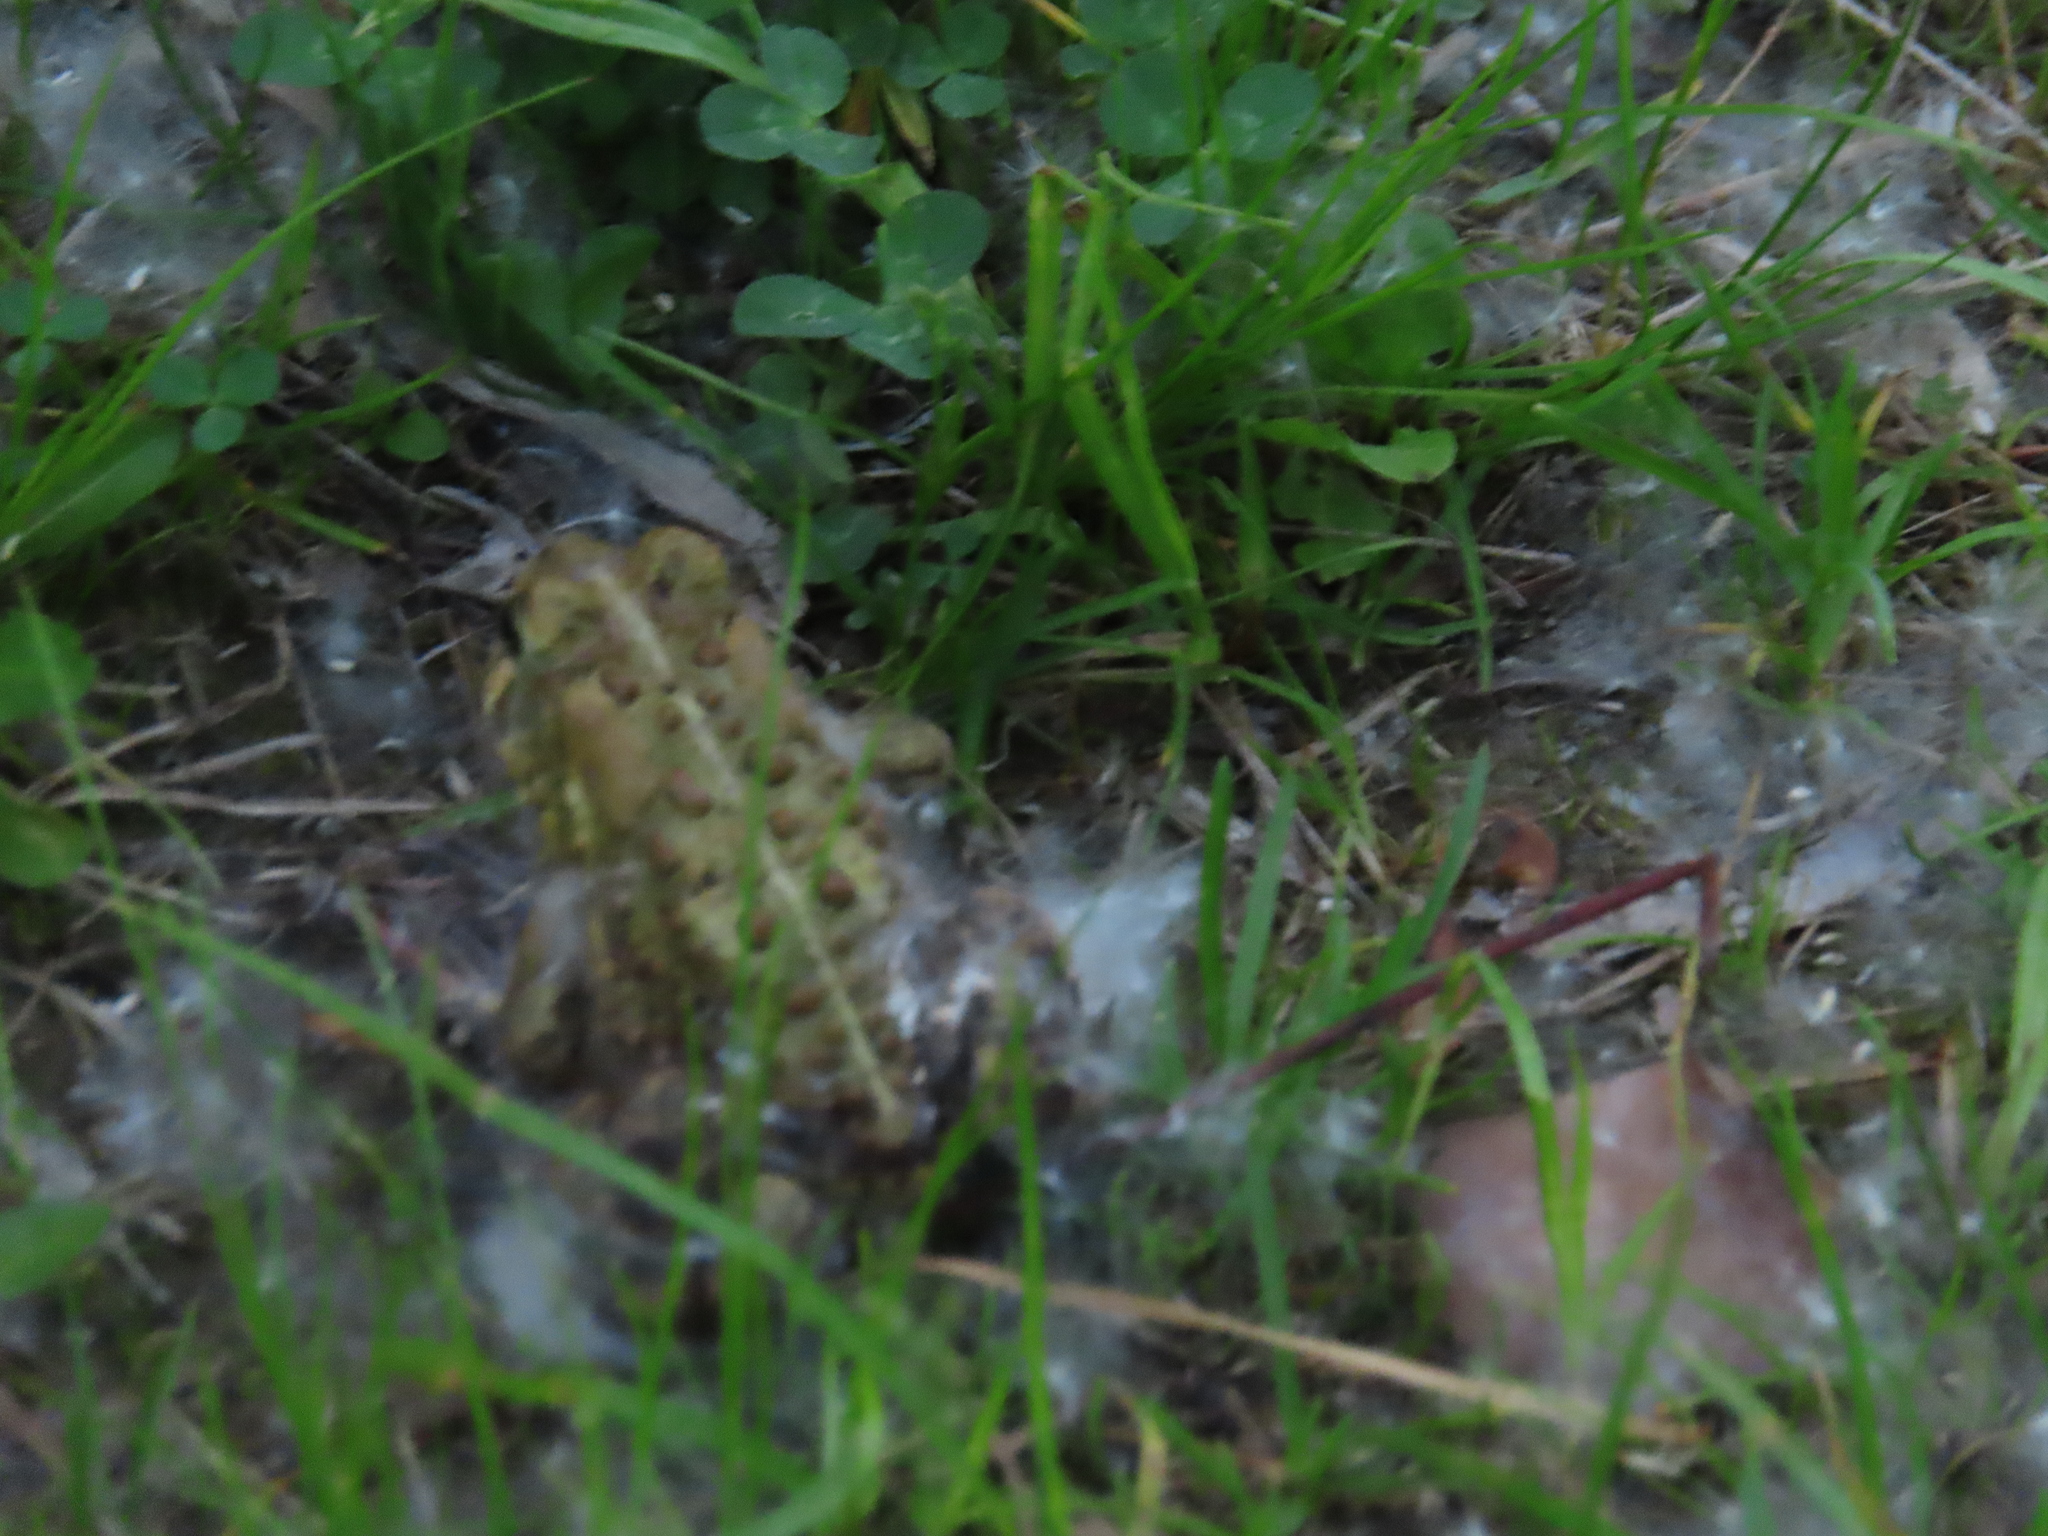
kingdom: Animalia
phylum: Chordata
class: Amphibia
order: Anura
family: Bufonidae
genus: Anaxyrus
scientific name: Anaxyrus americanus
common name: American toad
